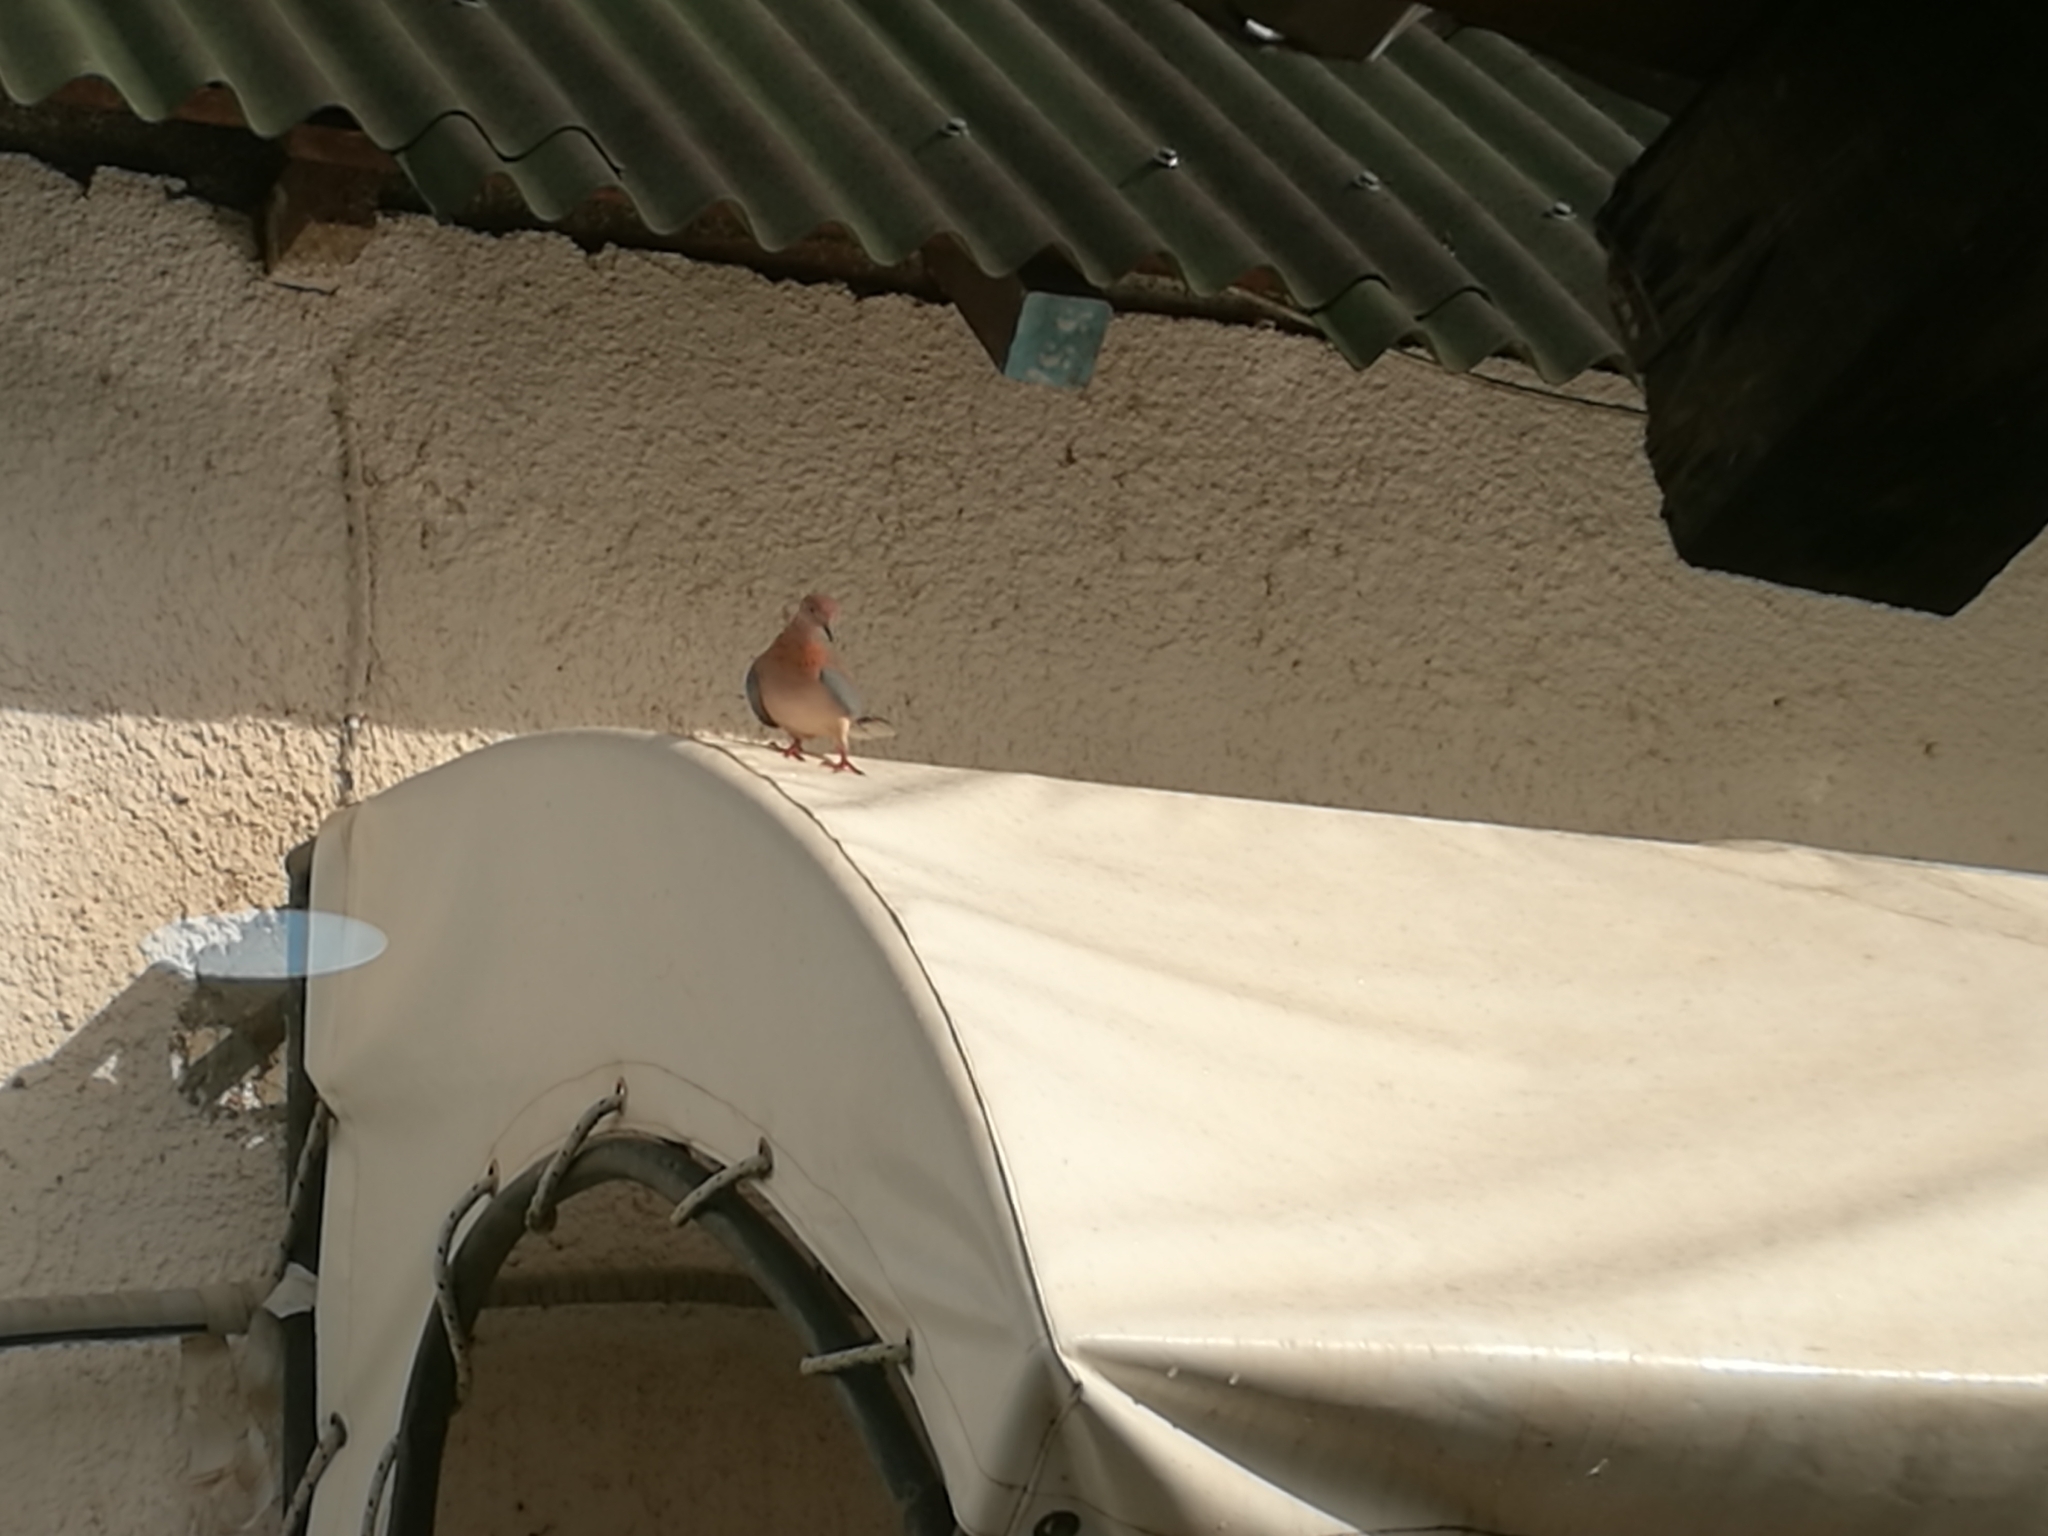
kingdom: Animalia
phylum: Chordata
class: Aves
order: Columbiformes
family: Columbidae
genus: Spilopelia
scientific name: Spilopelia senegalensis
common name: Laughing dove
